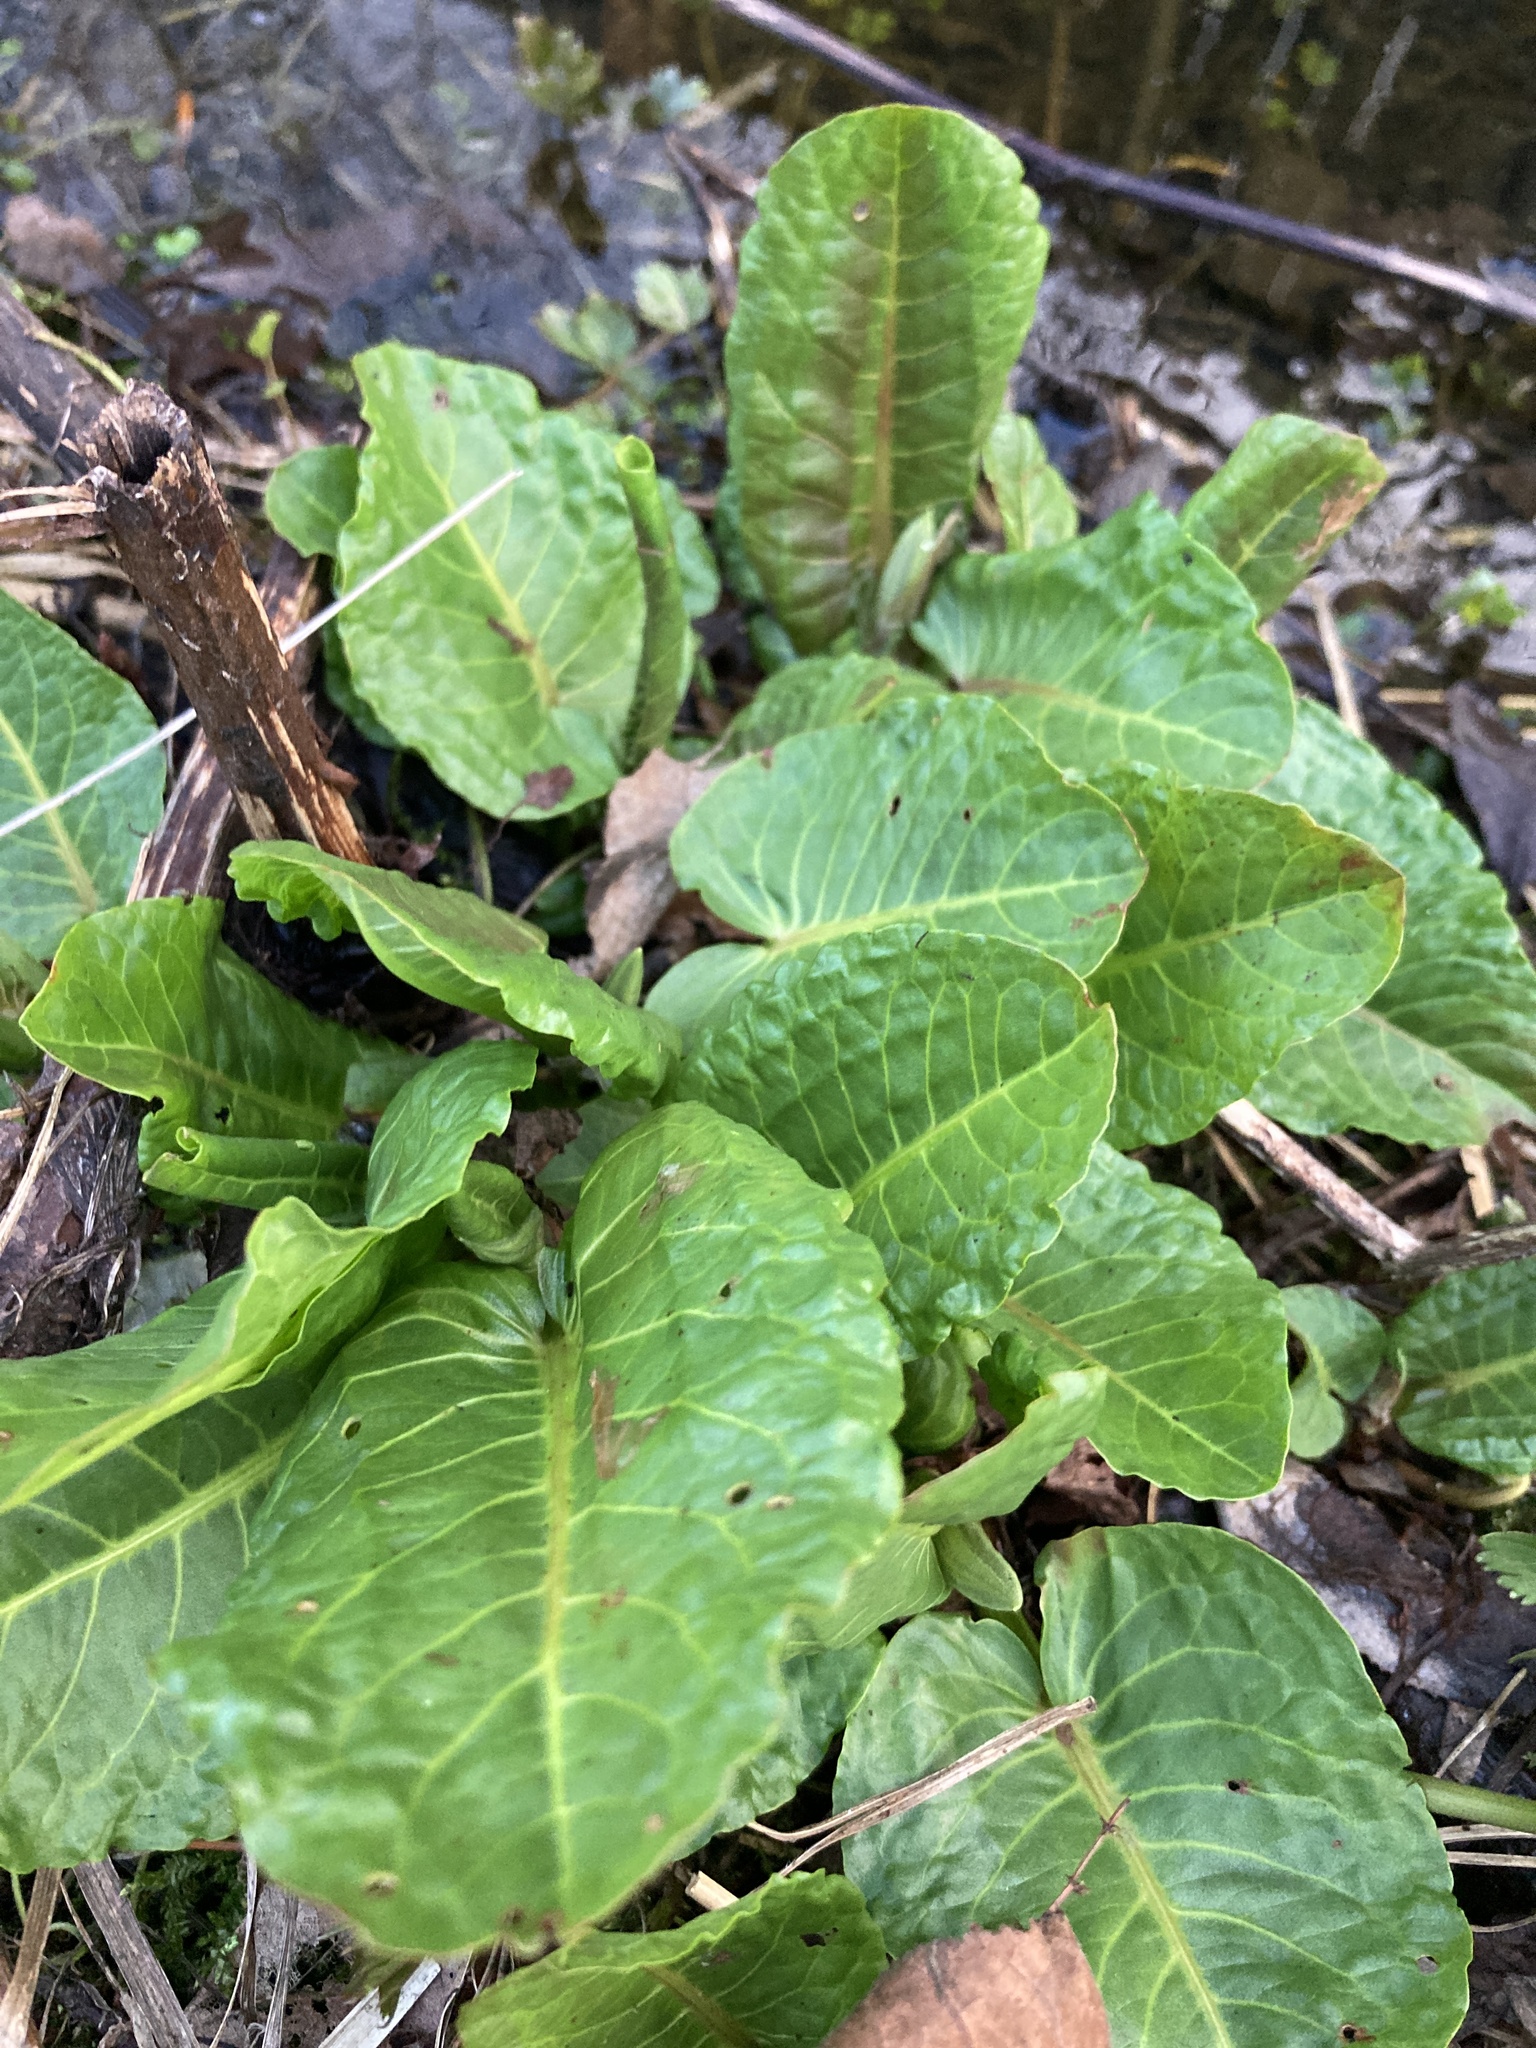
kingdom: Plantae
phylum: Tracheophyta
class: Magnoliopsida
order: Caryophyllales
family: Polygonaceae
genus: Rumex
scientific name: Rumex obtusifolius
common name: Bitter dock
